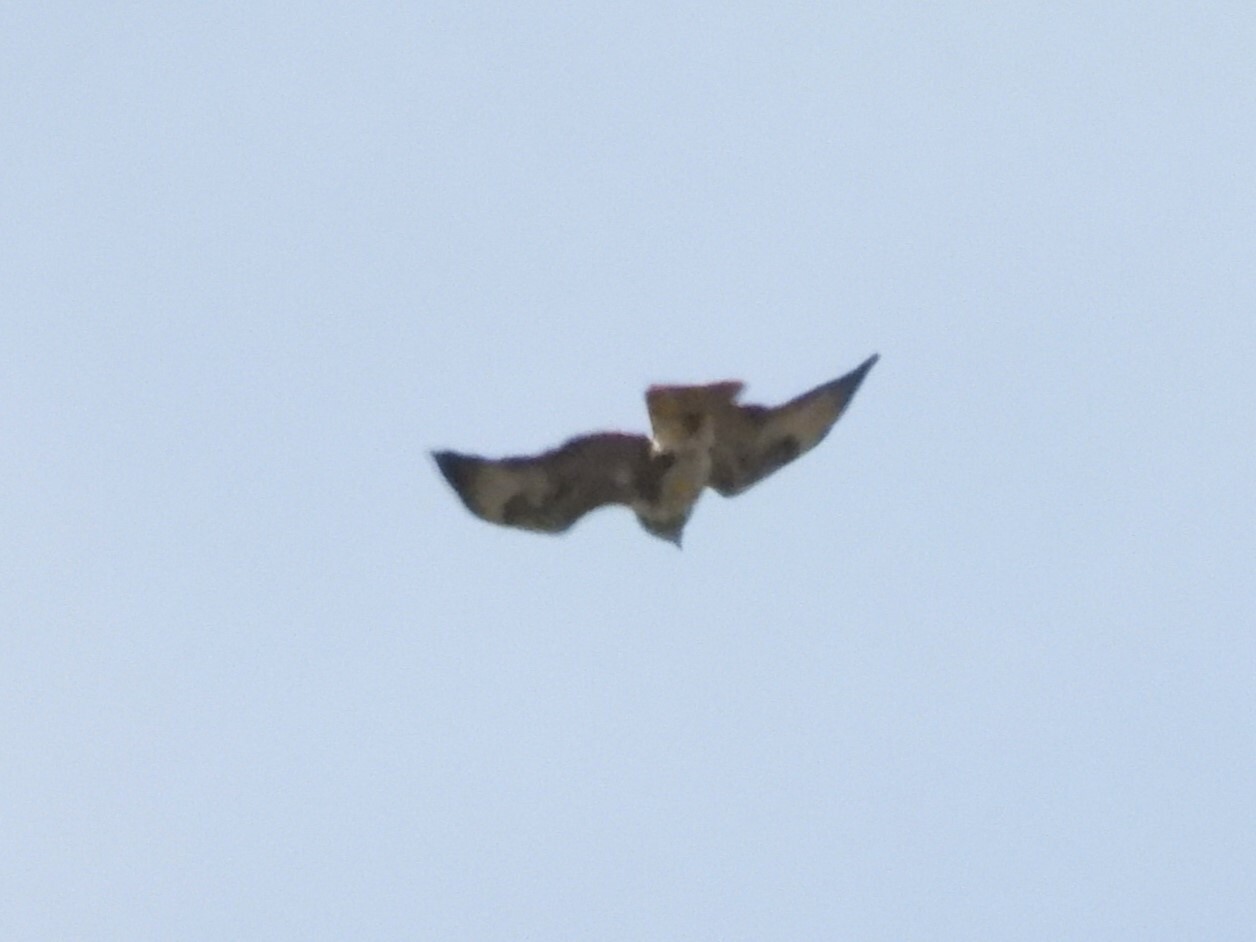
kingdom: Animalia
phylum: Chordata
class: Aves
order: Accipitriformes
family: Accipitridae
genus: Buteo
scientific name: Buteo buteo
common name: Common buzzard
